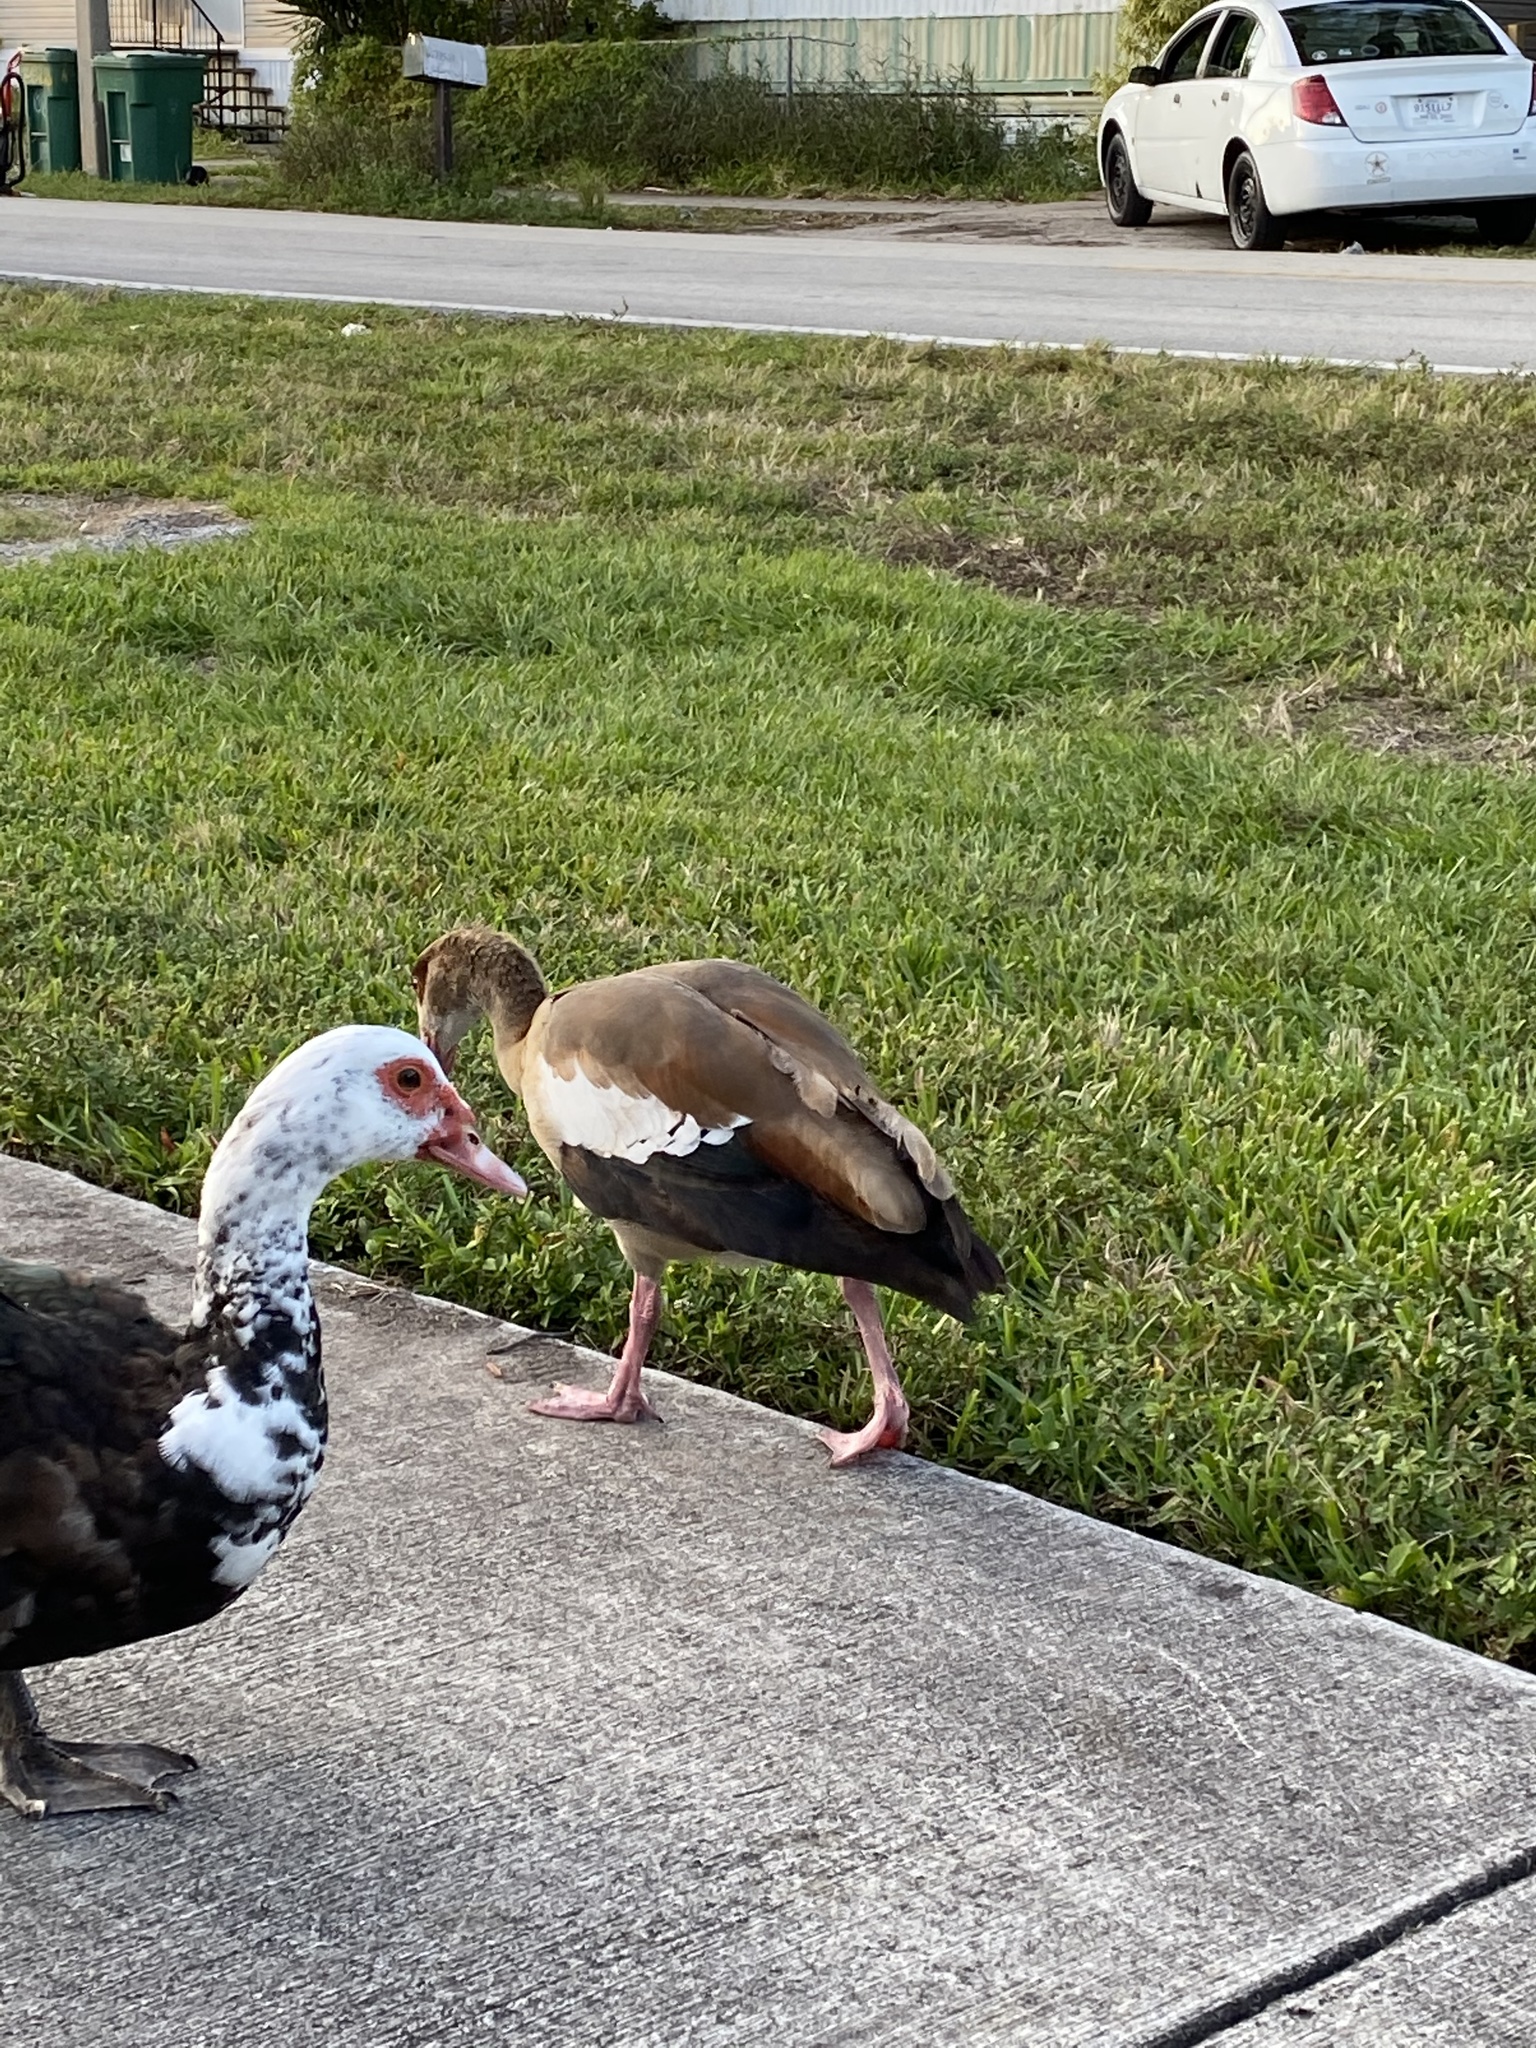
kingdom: Animalia
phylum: Chordata
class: Aves
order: Anseriformes
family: Anatidae
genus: Alopochen
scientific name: Alopochen aegyptiaca
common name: Egyptian goose
